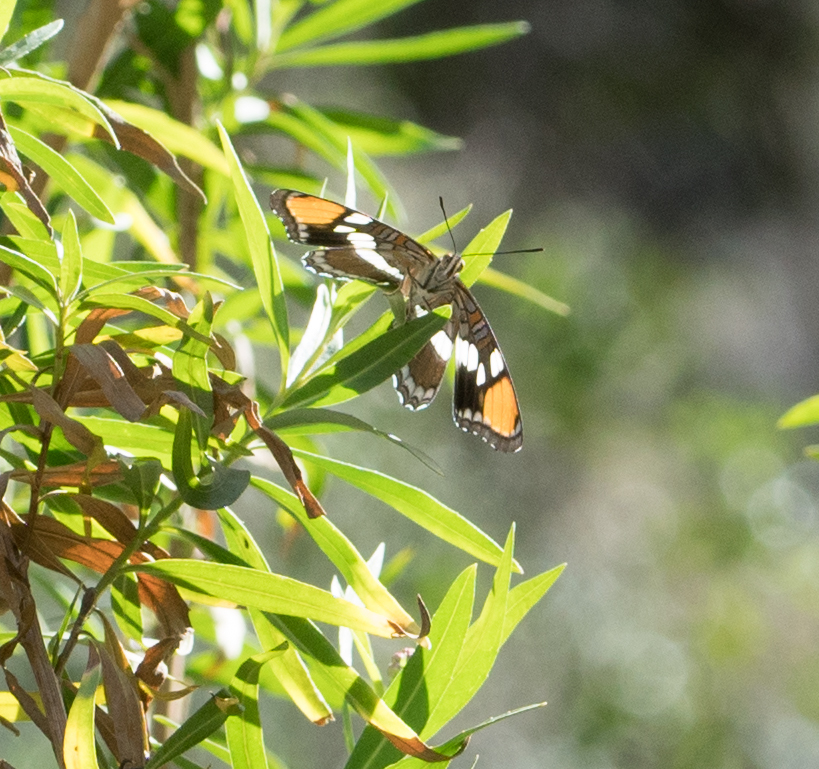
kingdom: Animalia
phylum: Arthropoda
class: Insecta
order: Lepidoptera
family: Nymphalidae
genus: Limenitis
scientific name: Limenitis bredowii
